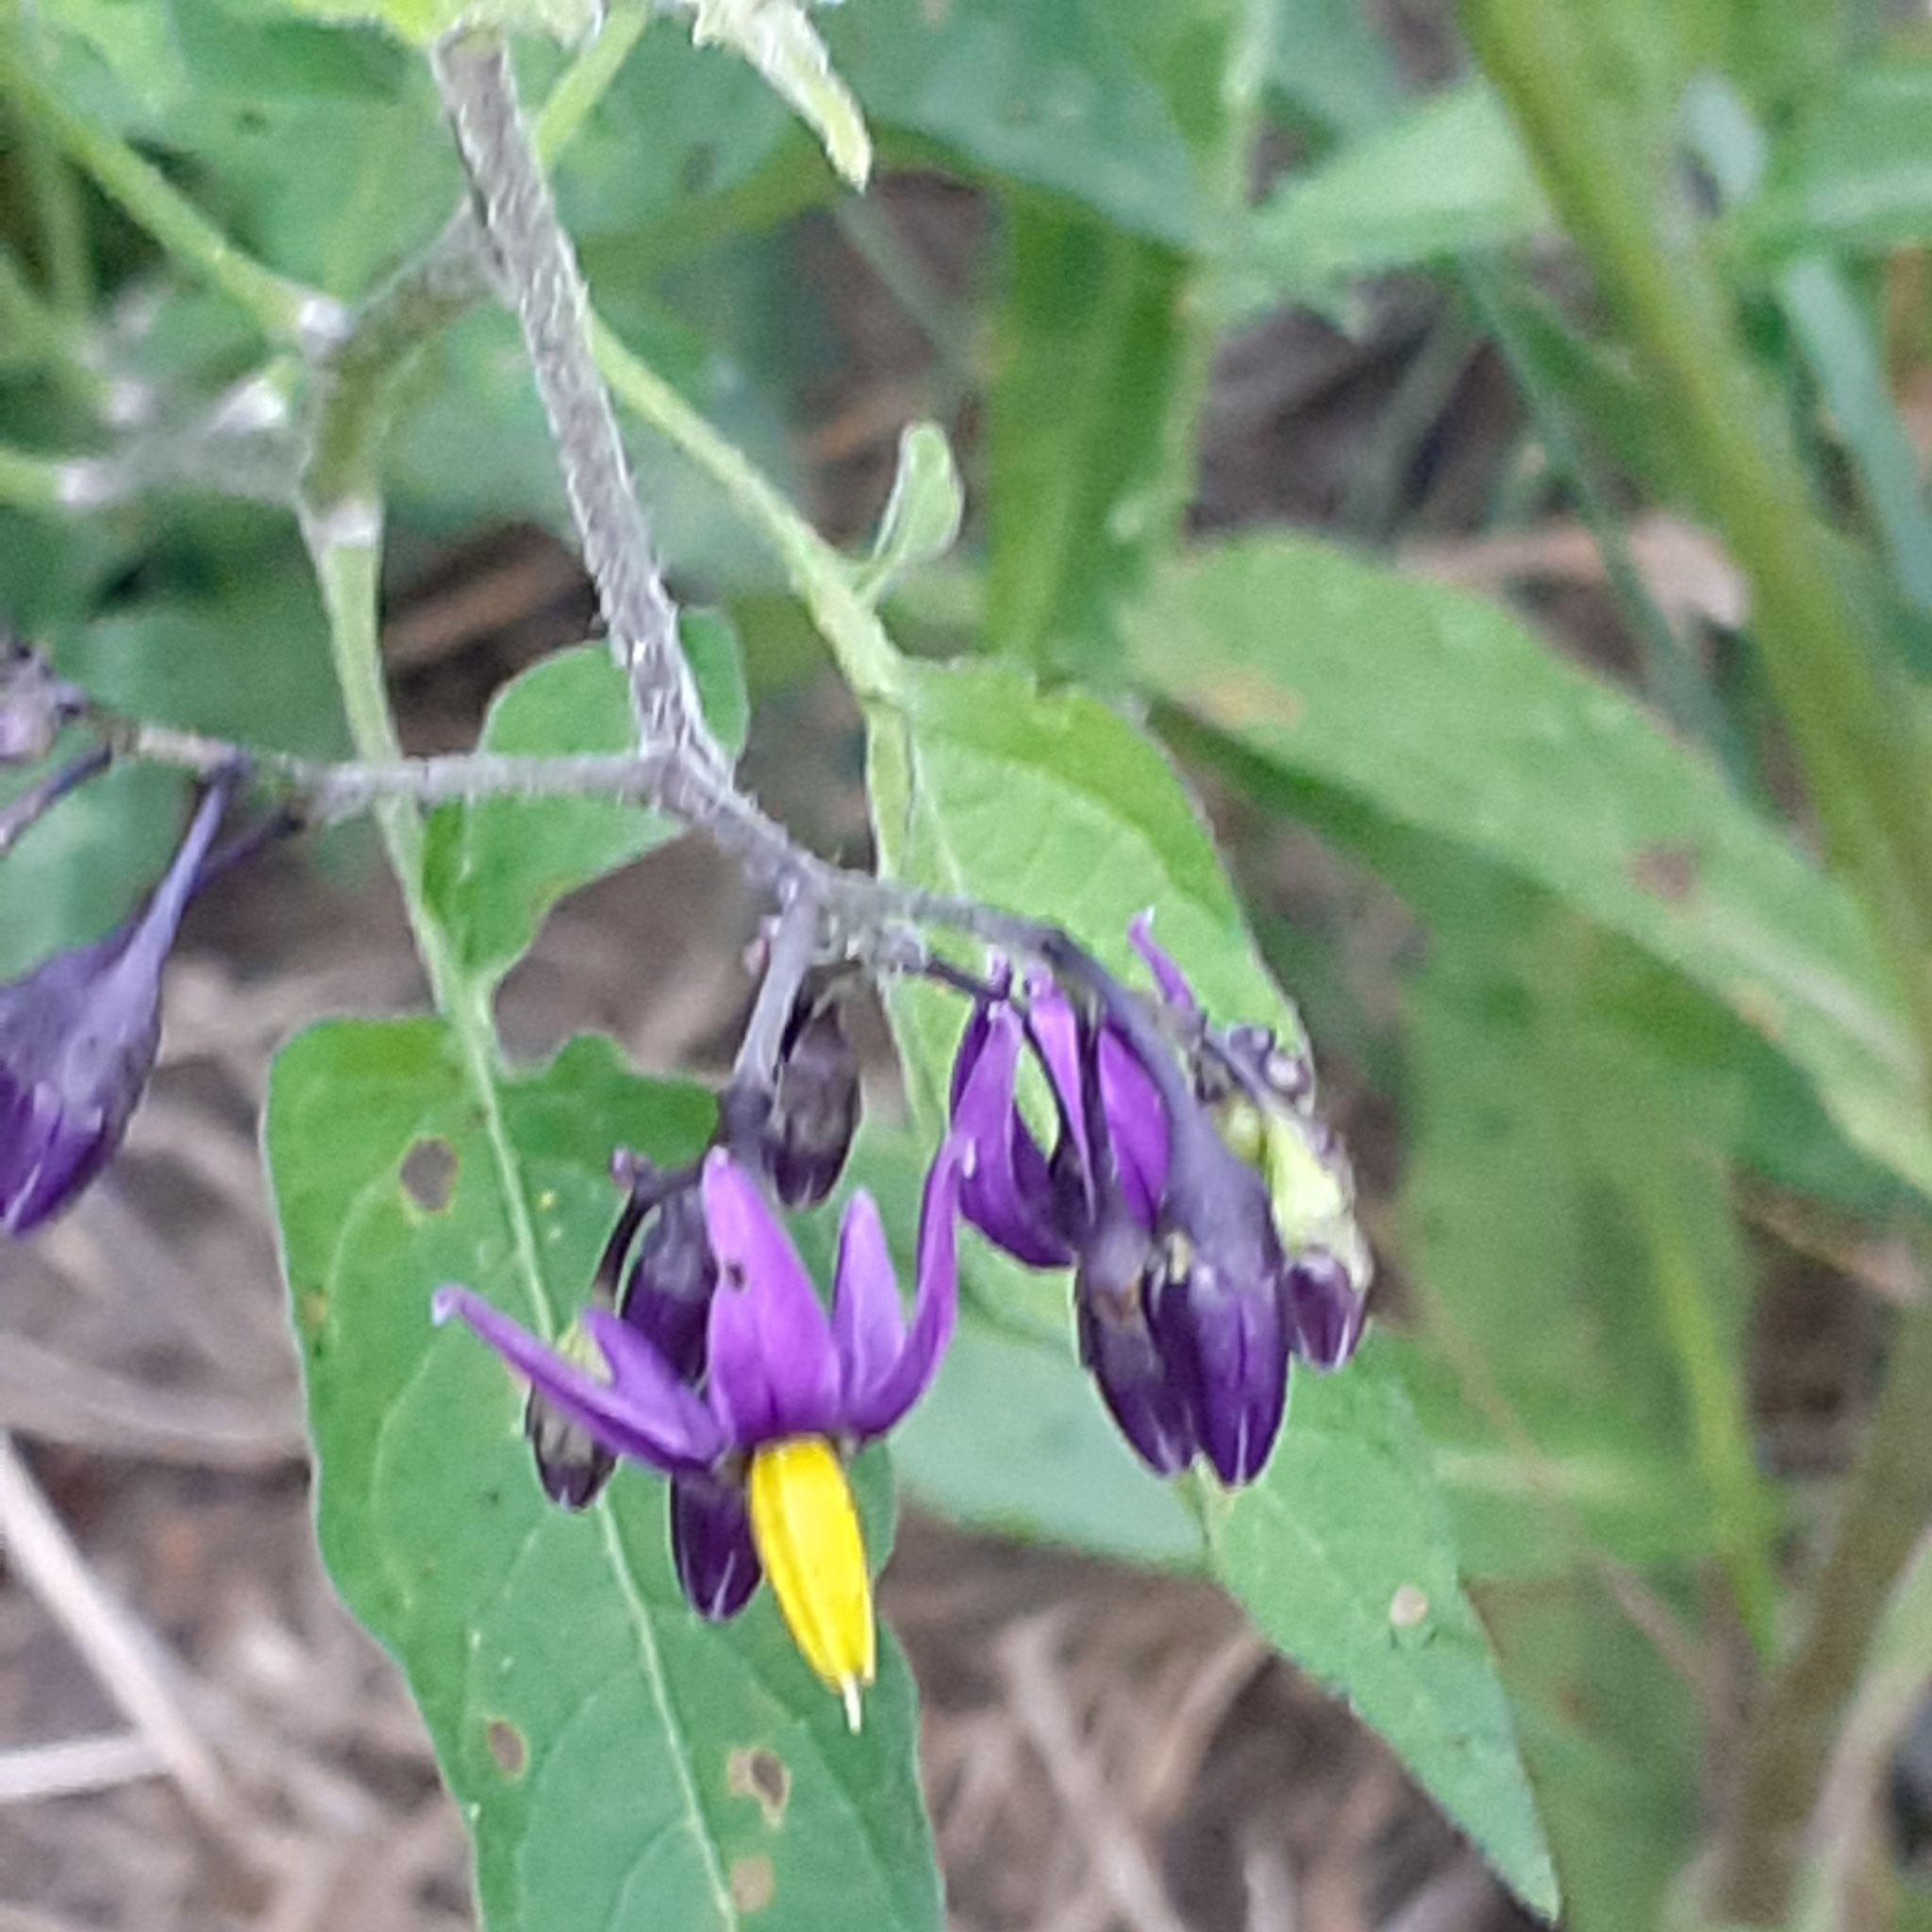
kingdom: Plantae
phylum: Tracheophyta
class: Magnoliopsida
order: Solanales
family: Solanaceae
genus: Solanum
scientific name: Solanum dulcamara
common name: Climbing nightshade
